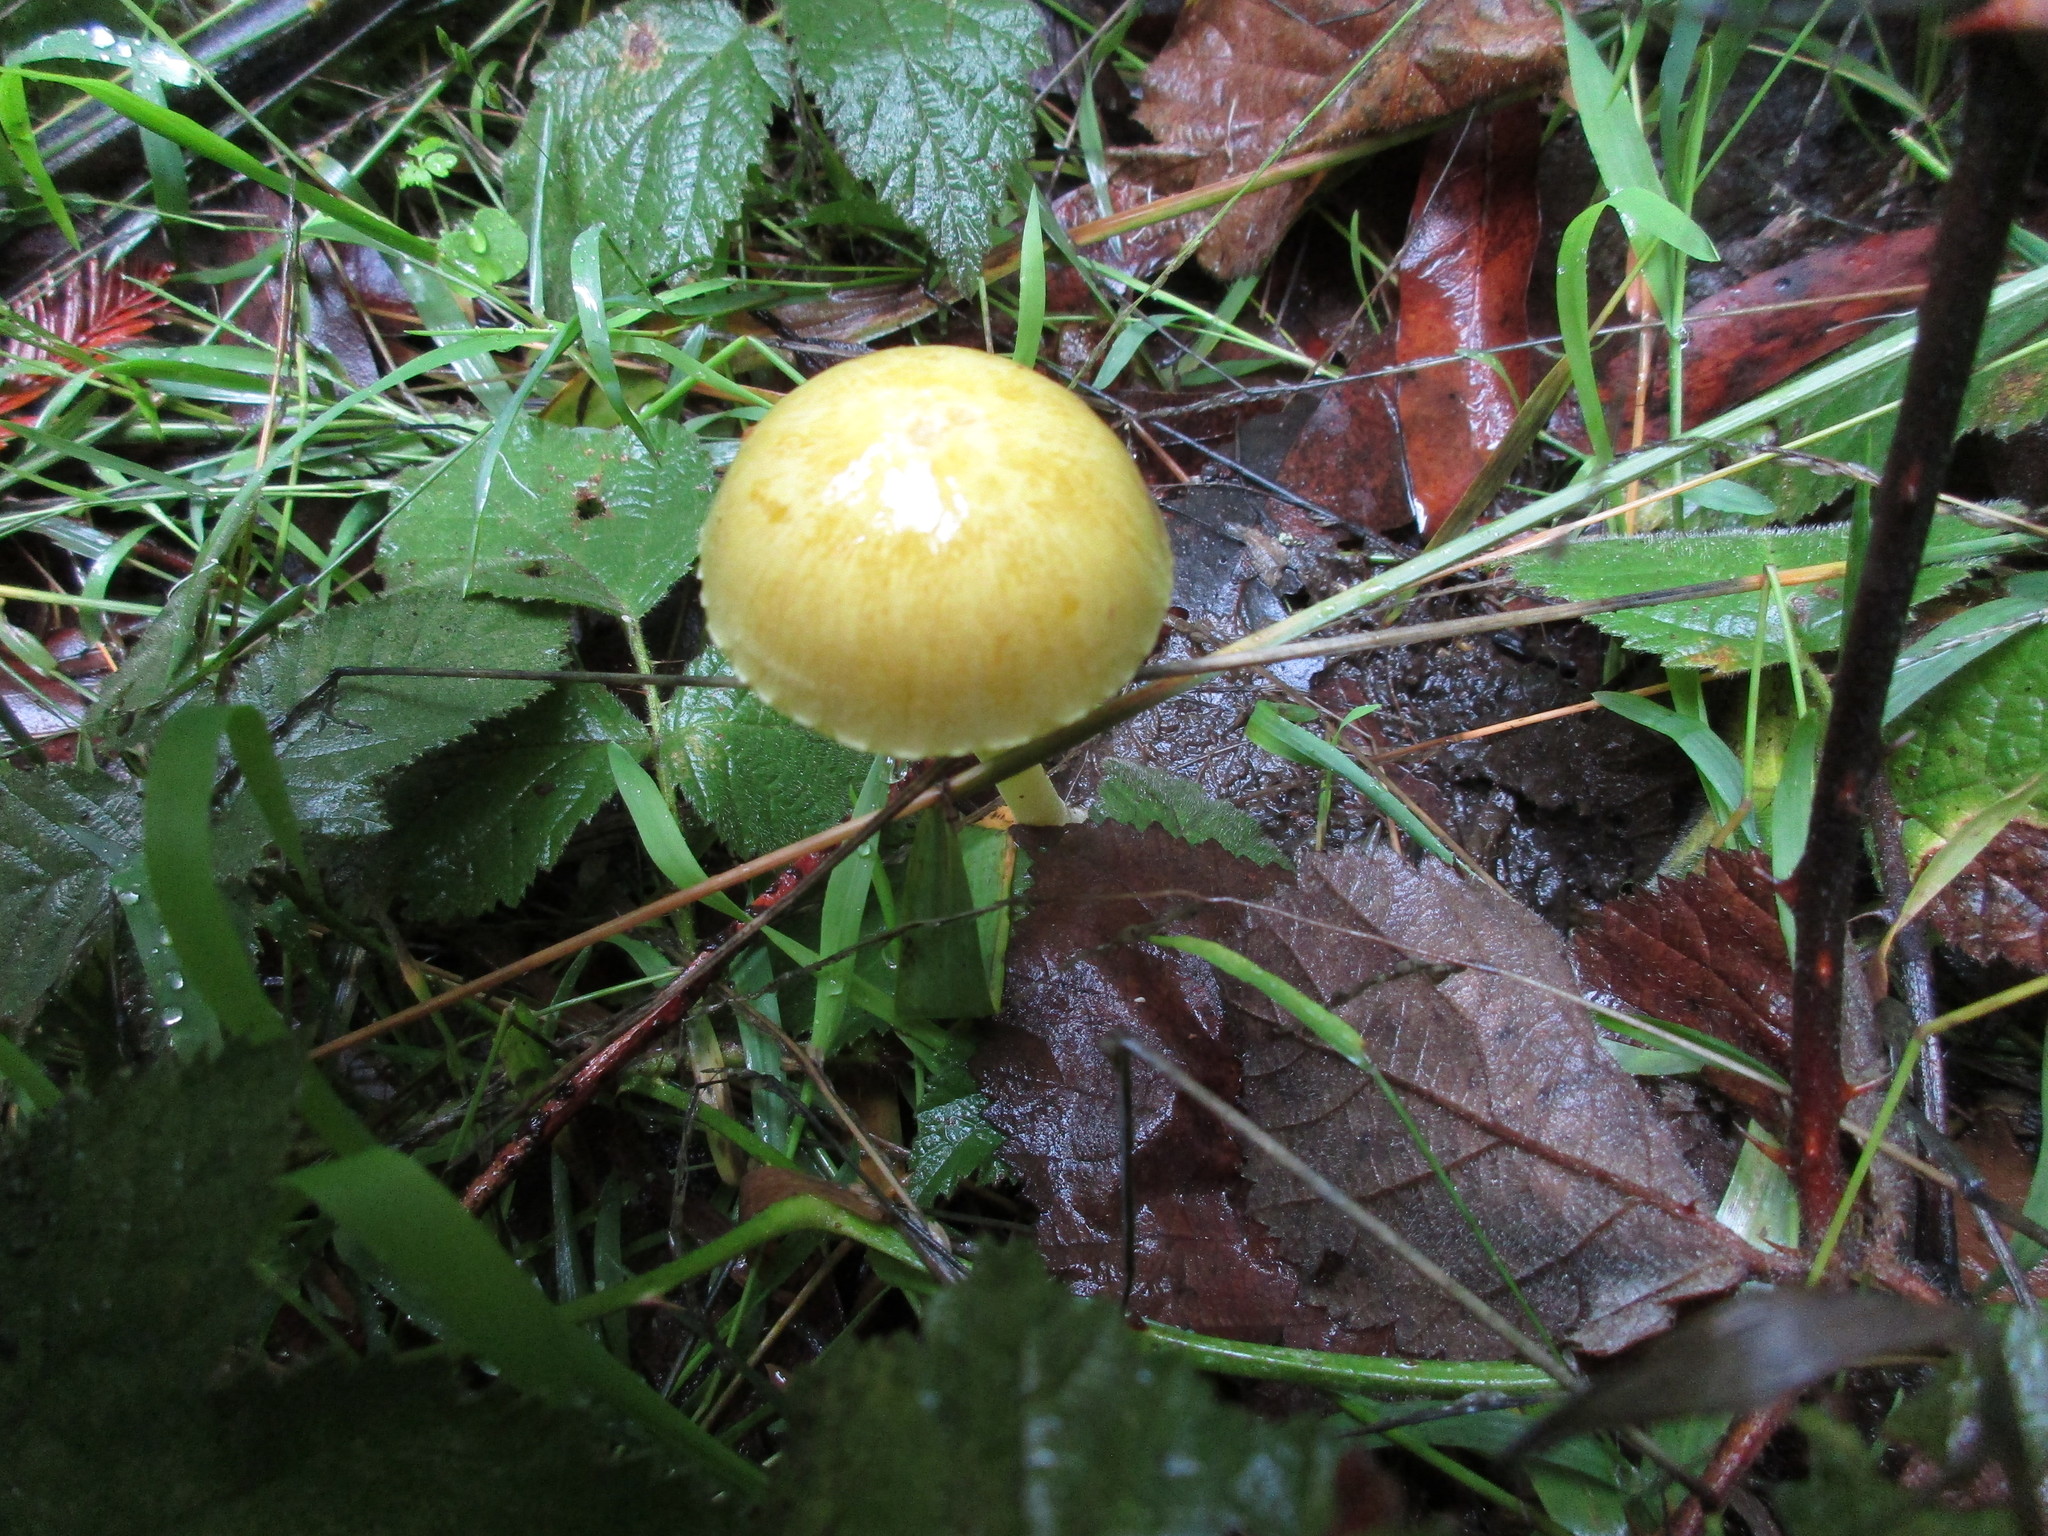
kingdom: Fungi
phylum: Basidiomycota
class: Agaricomycetes
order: Agaricales
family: Bolbitiaceae
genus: Bolbitius
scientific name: Bolbitius titubans
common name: Yellow fieldcap
